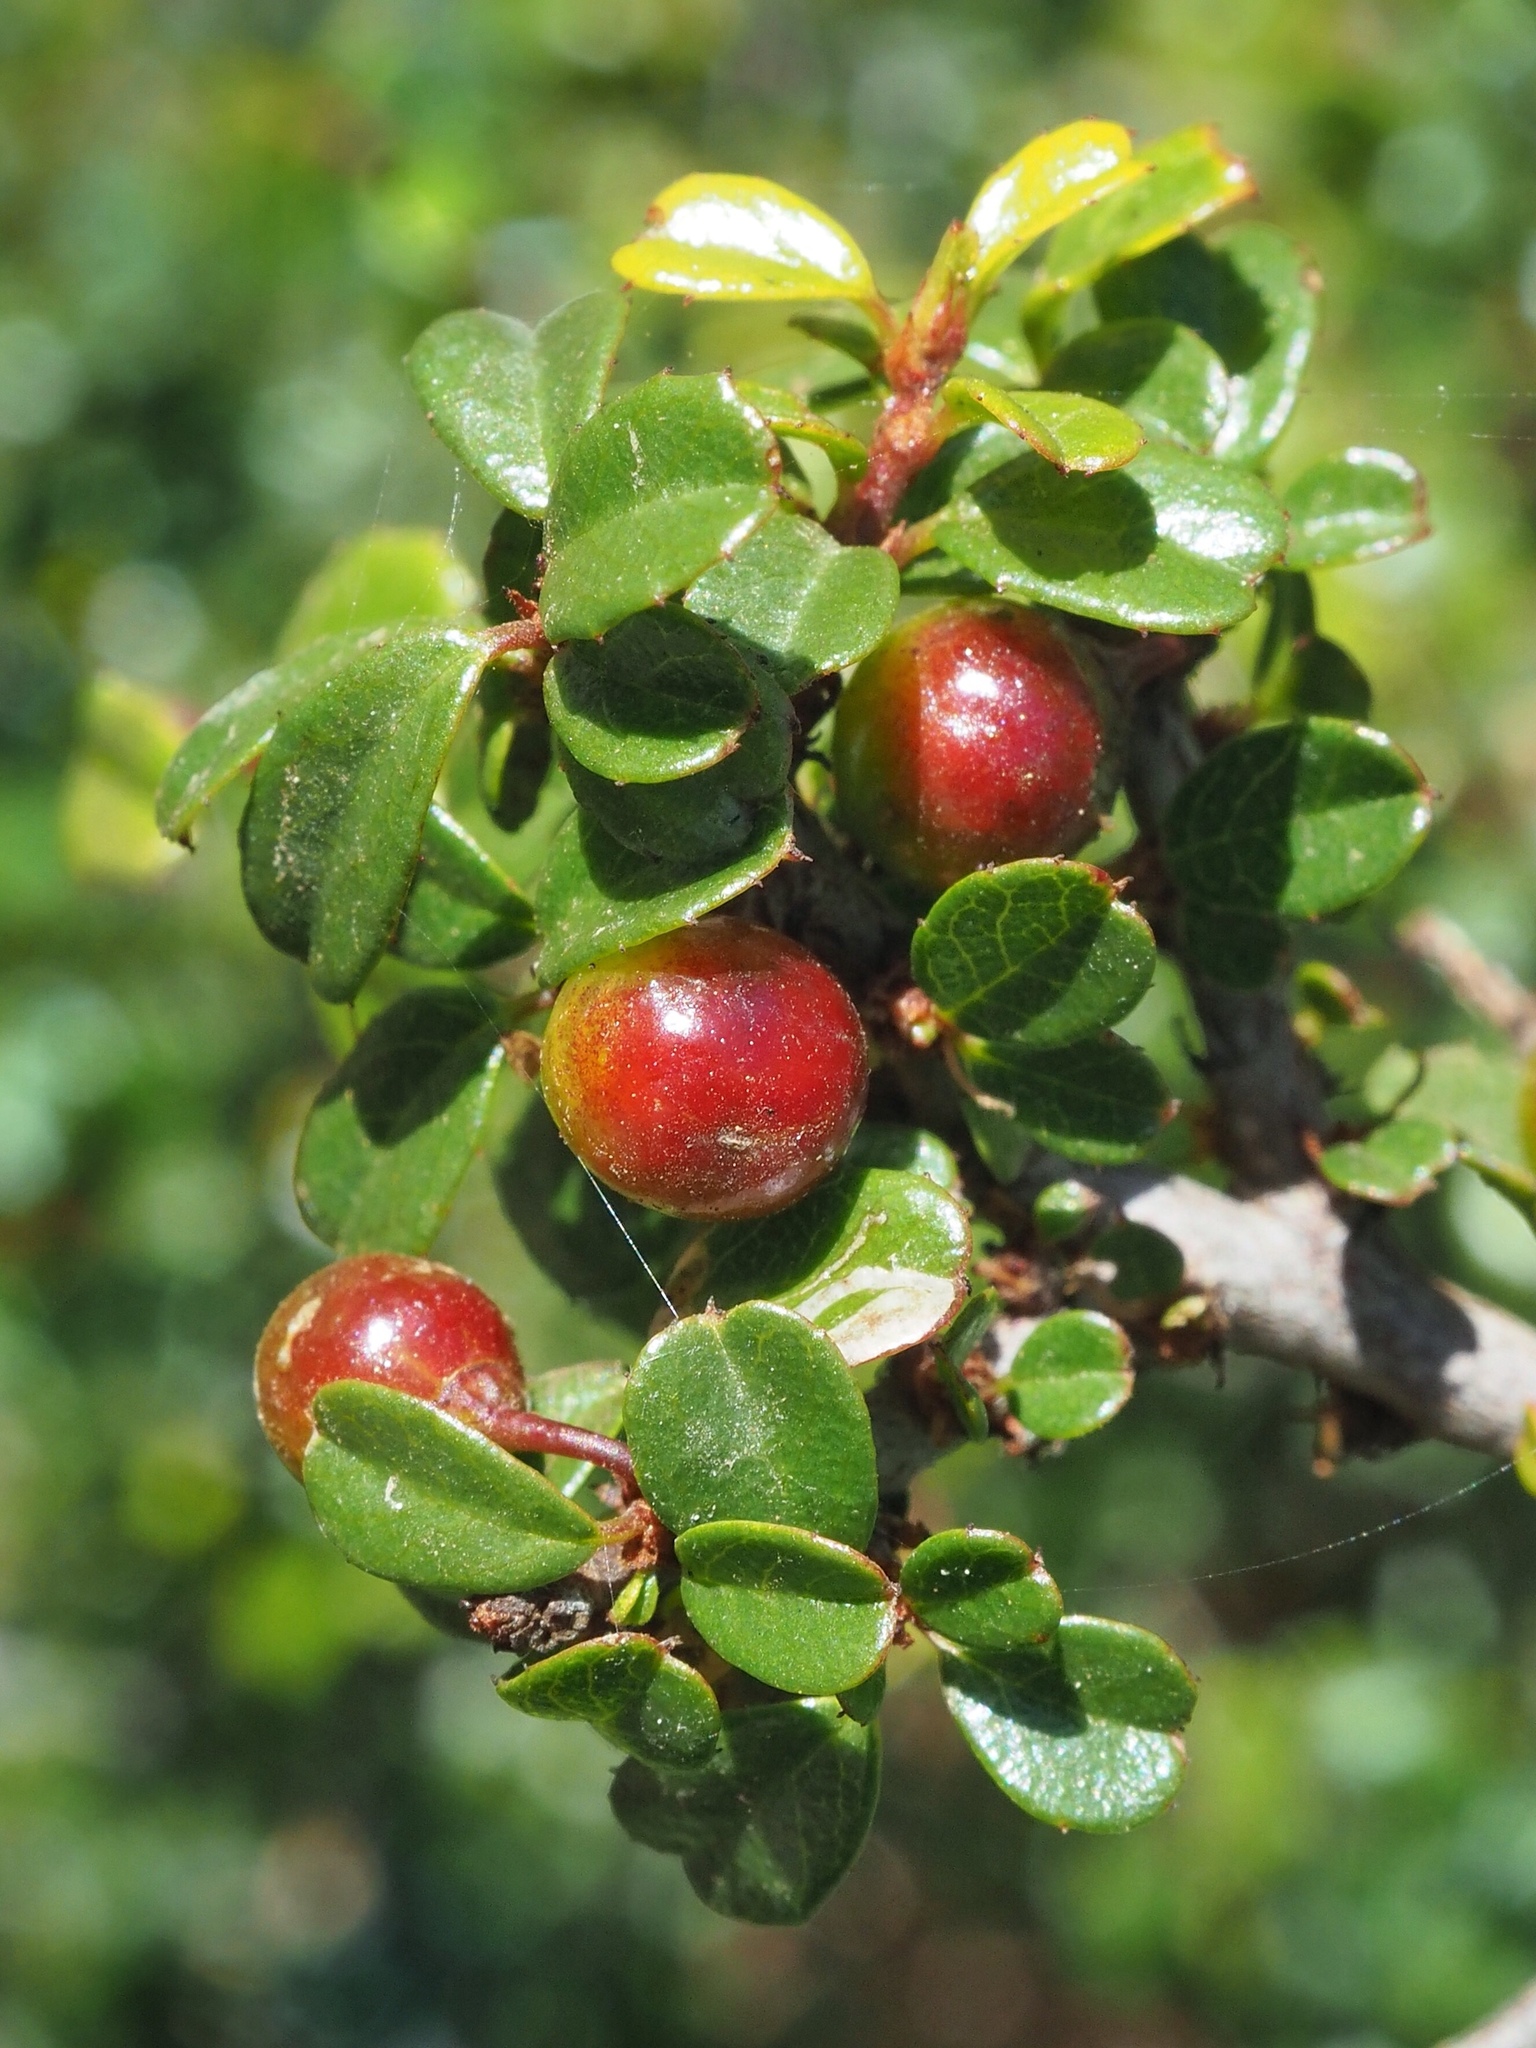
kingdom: Plantae
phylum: Tracheophyta
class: Magnoliopsida
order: Rosales
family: Rhamnaceae
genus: Endotropis
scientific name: Endotropis crocea
